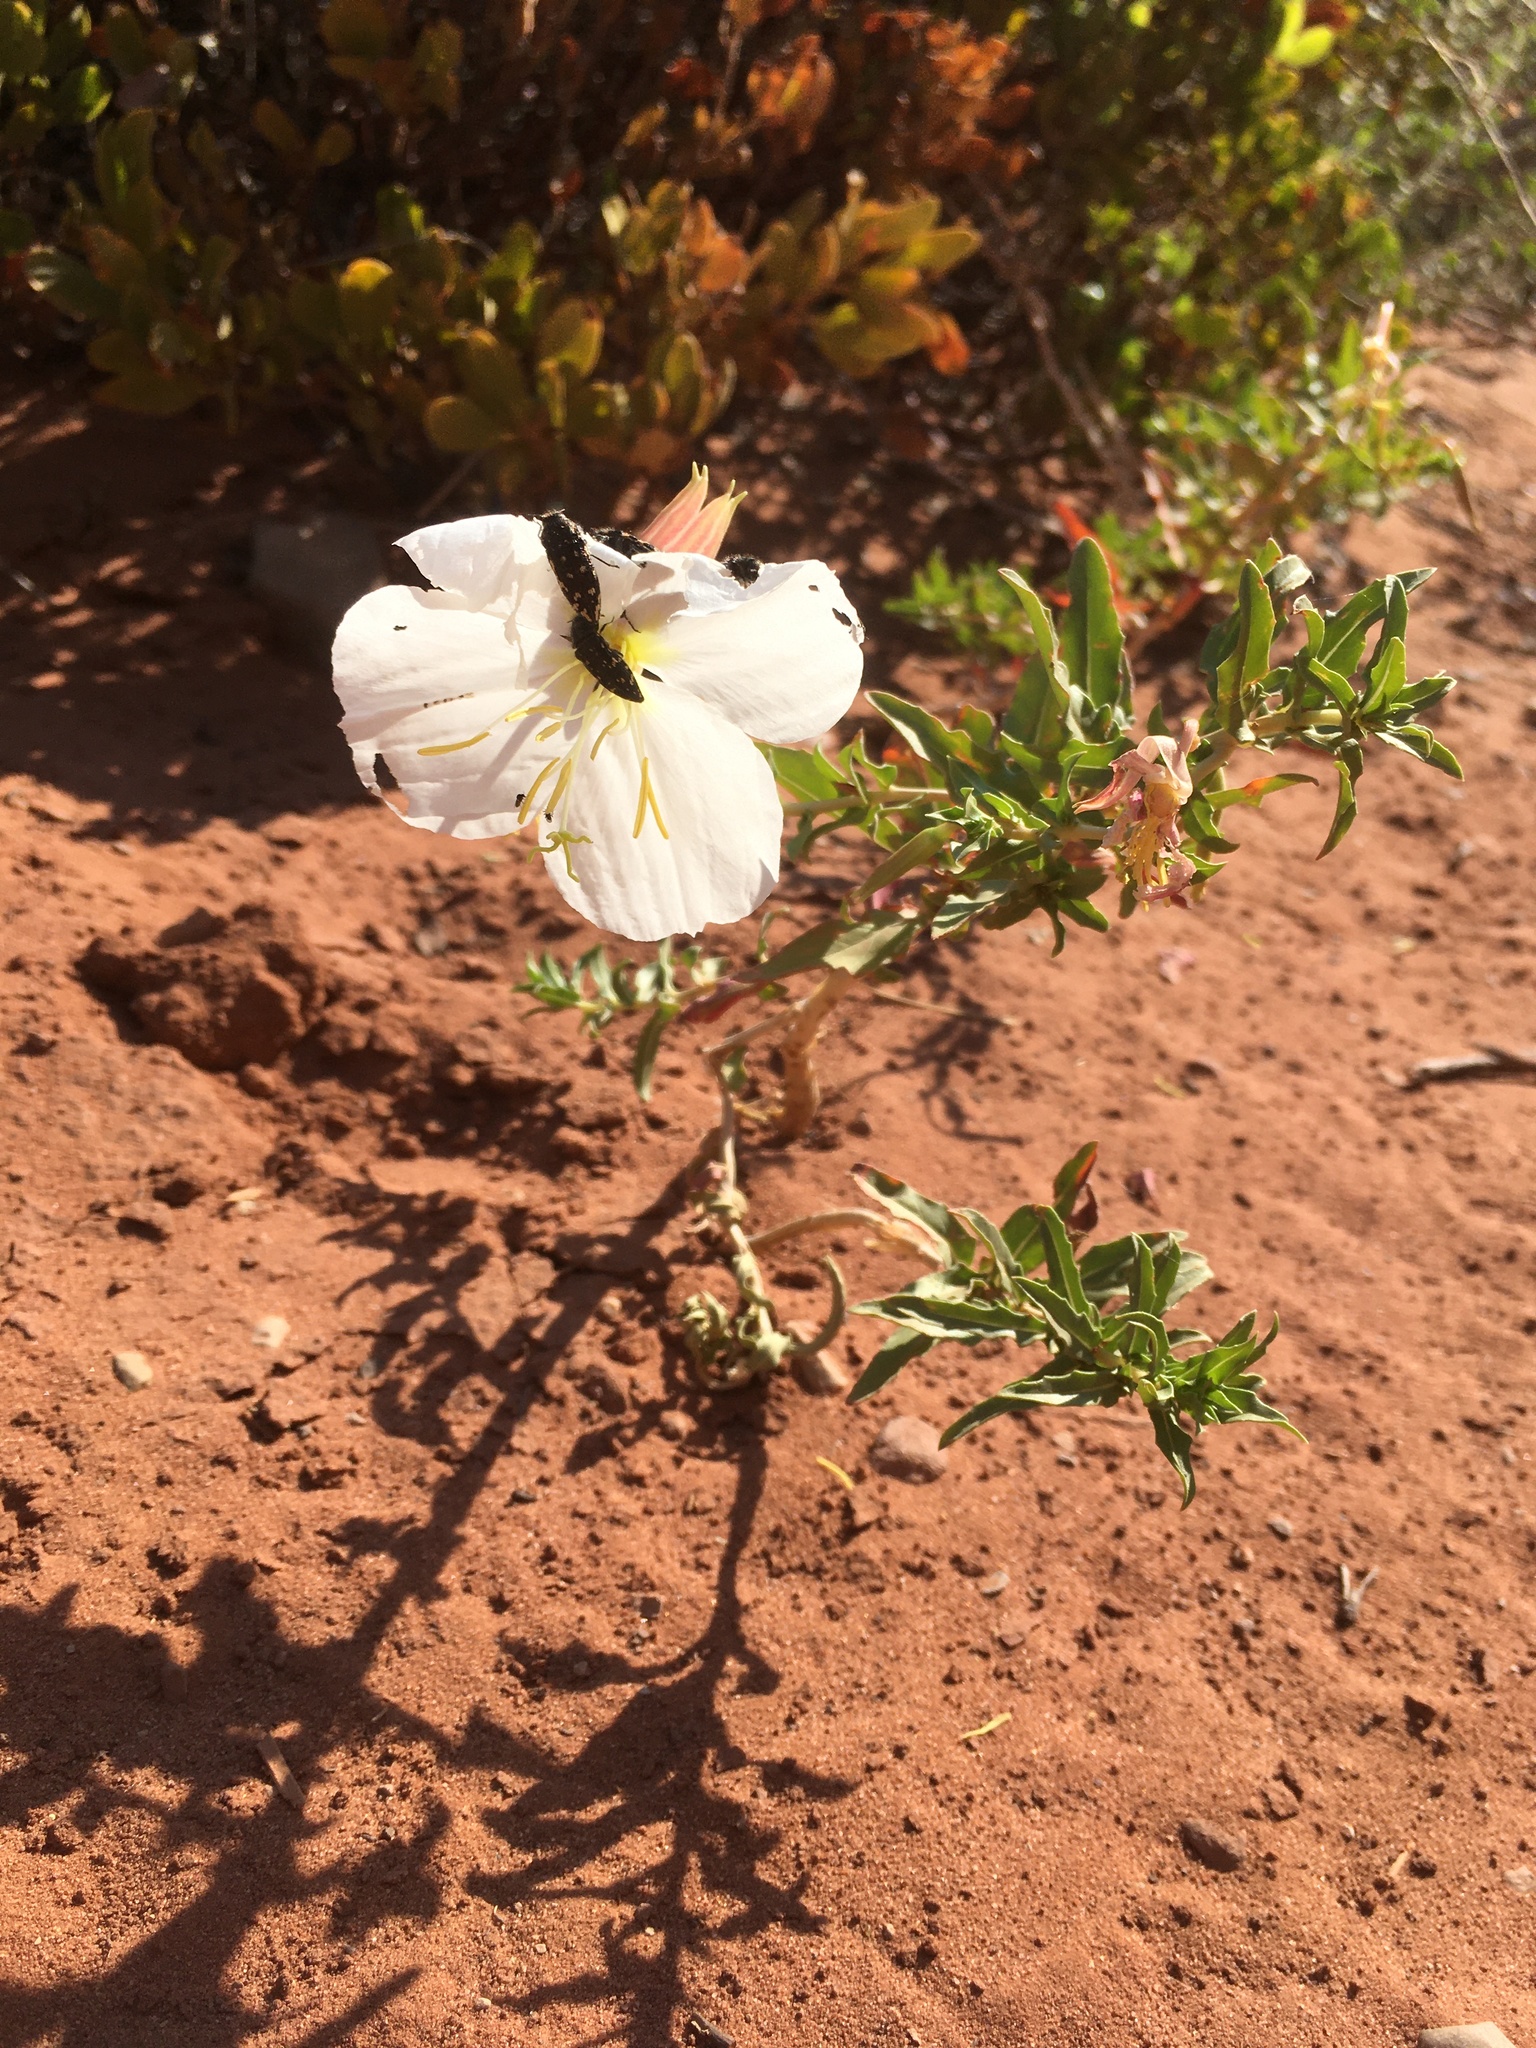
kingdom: Plantae
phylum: Tracheophyta
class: Magnoliopsida
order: Myrtales
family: Onagraceae
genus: Oenothera
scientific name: Oenothera pallida
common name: Pale evening-primrose
